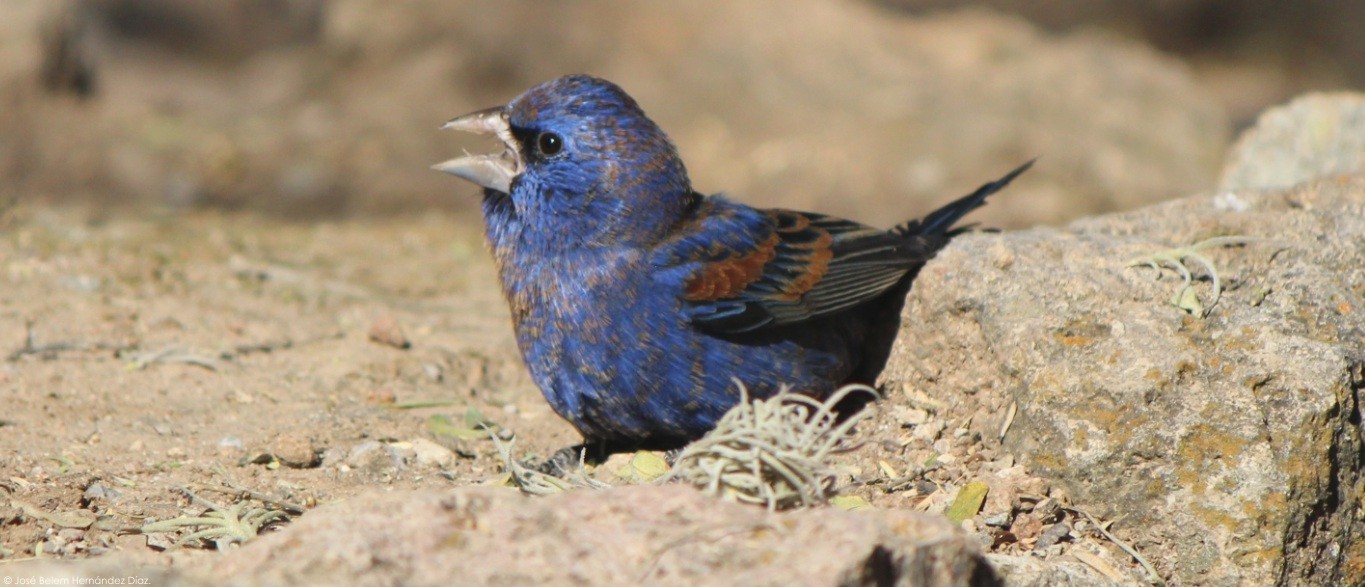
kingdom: Animalia
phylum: Chordata
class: Aves
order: Passeriformes
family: Cardinalidae
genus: Passerina
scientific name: Passerina caerulea
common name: Blue grosbeak
